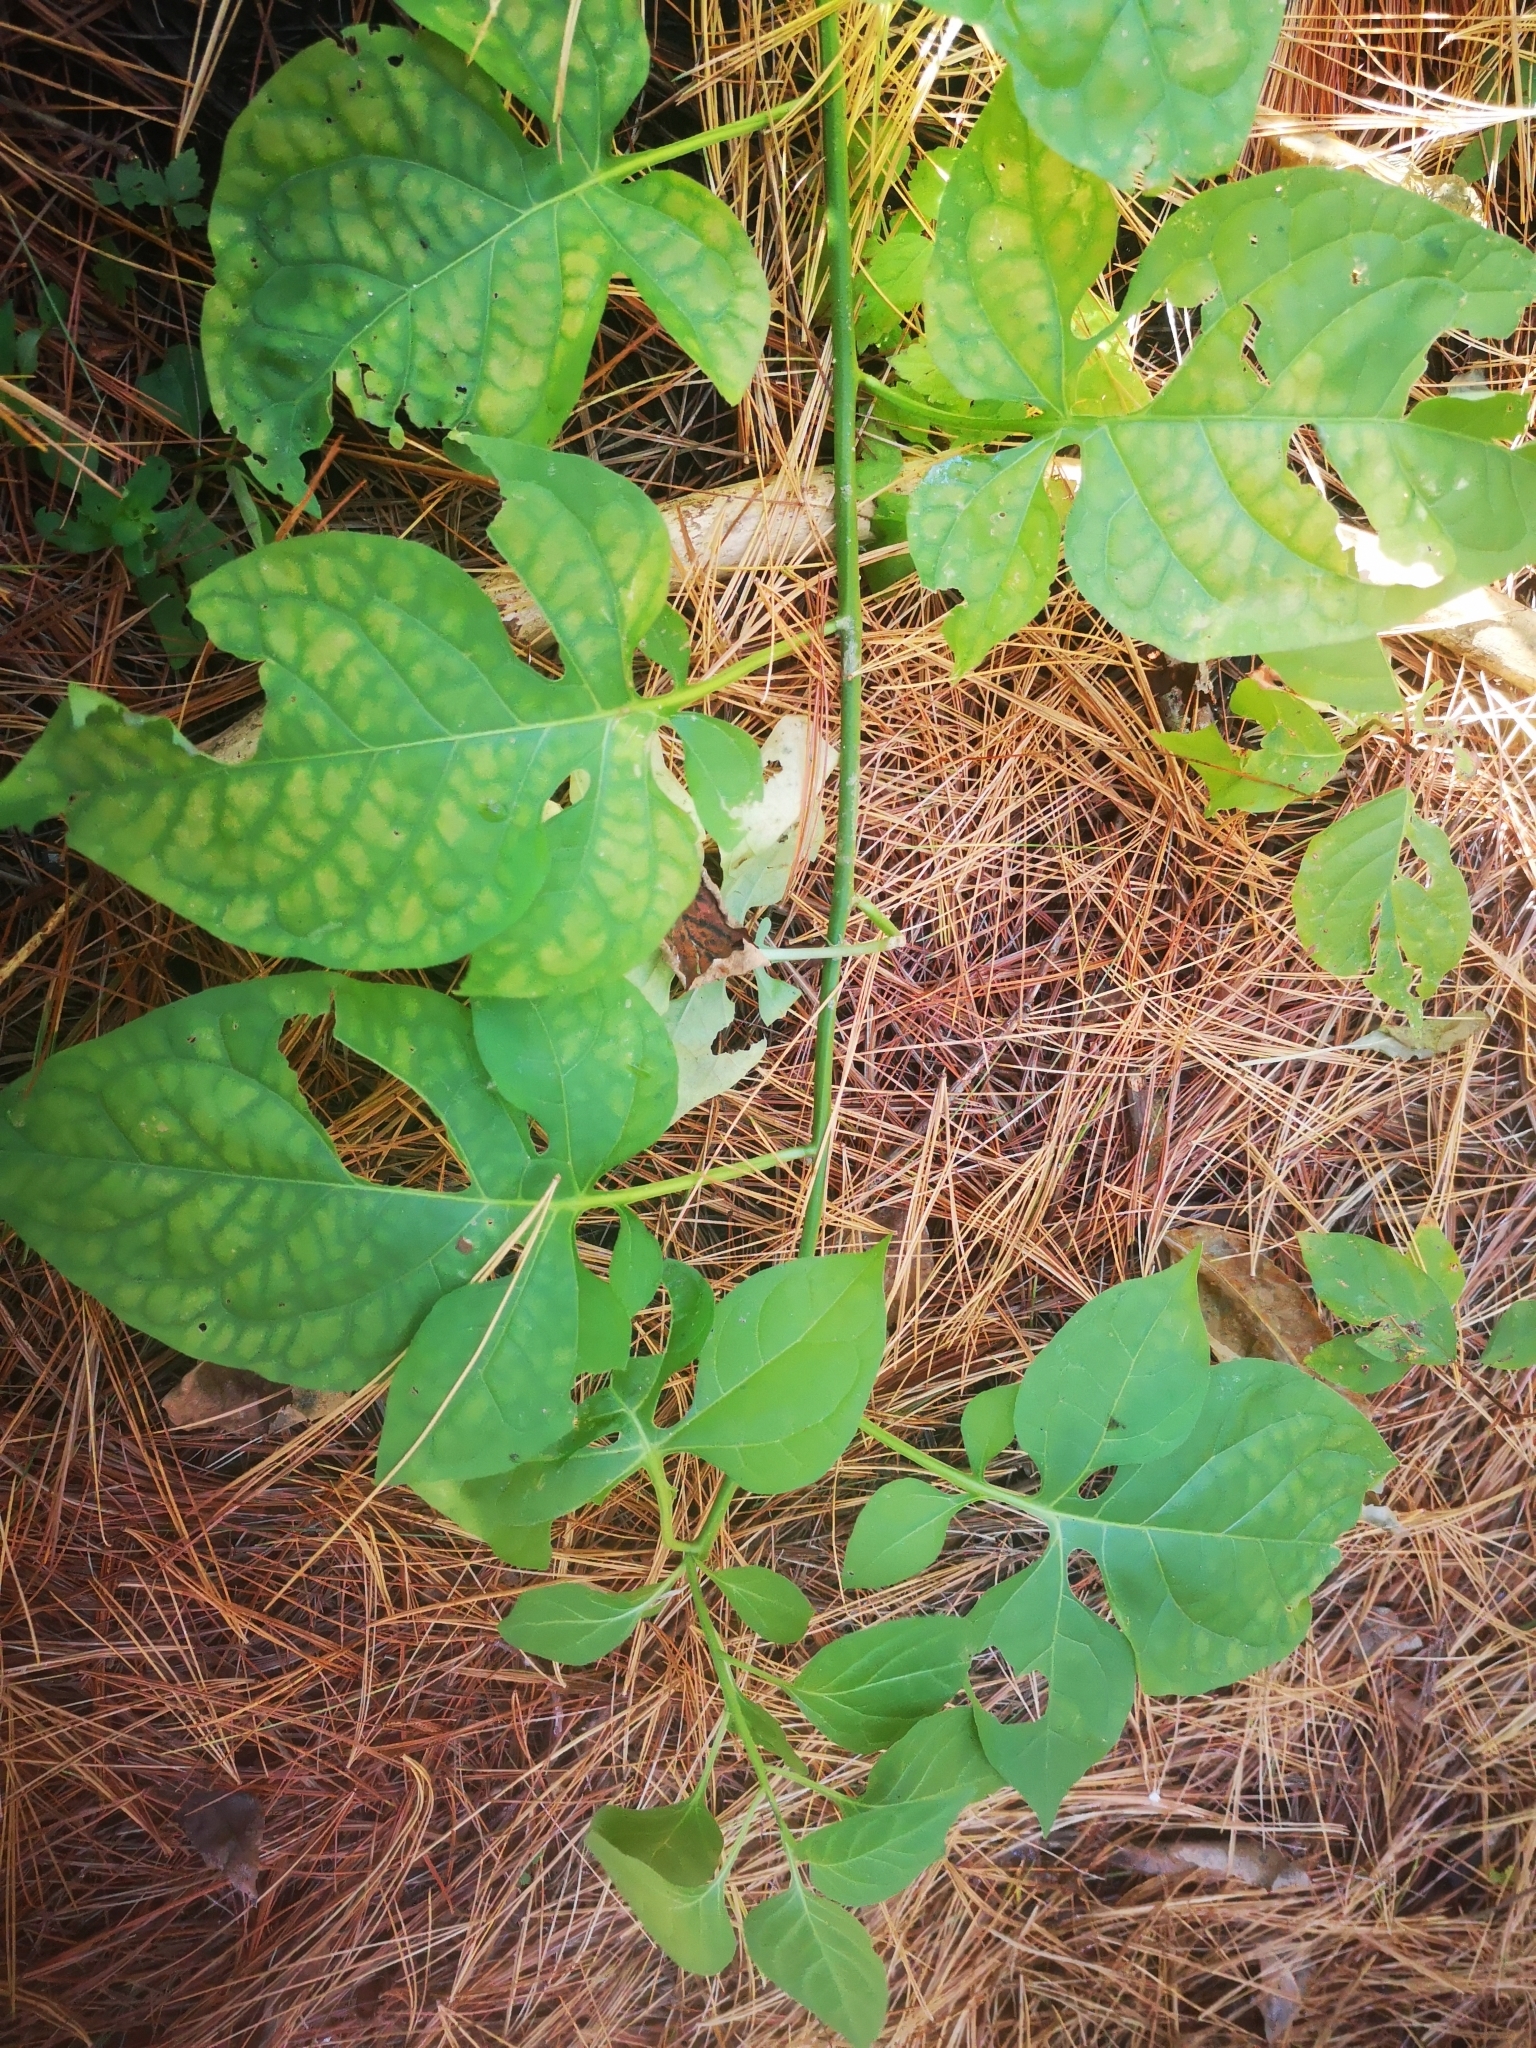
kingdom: Plantae
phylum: Tracheophyta
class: Magnoliopsida
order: Solanales
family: Solanaceae
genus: Solanum
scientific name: Solanum dulcamara
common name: Climbing nightshade
